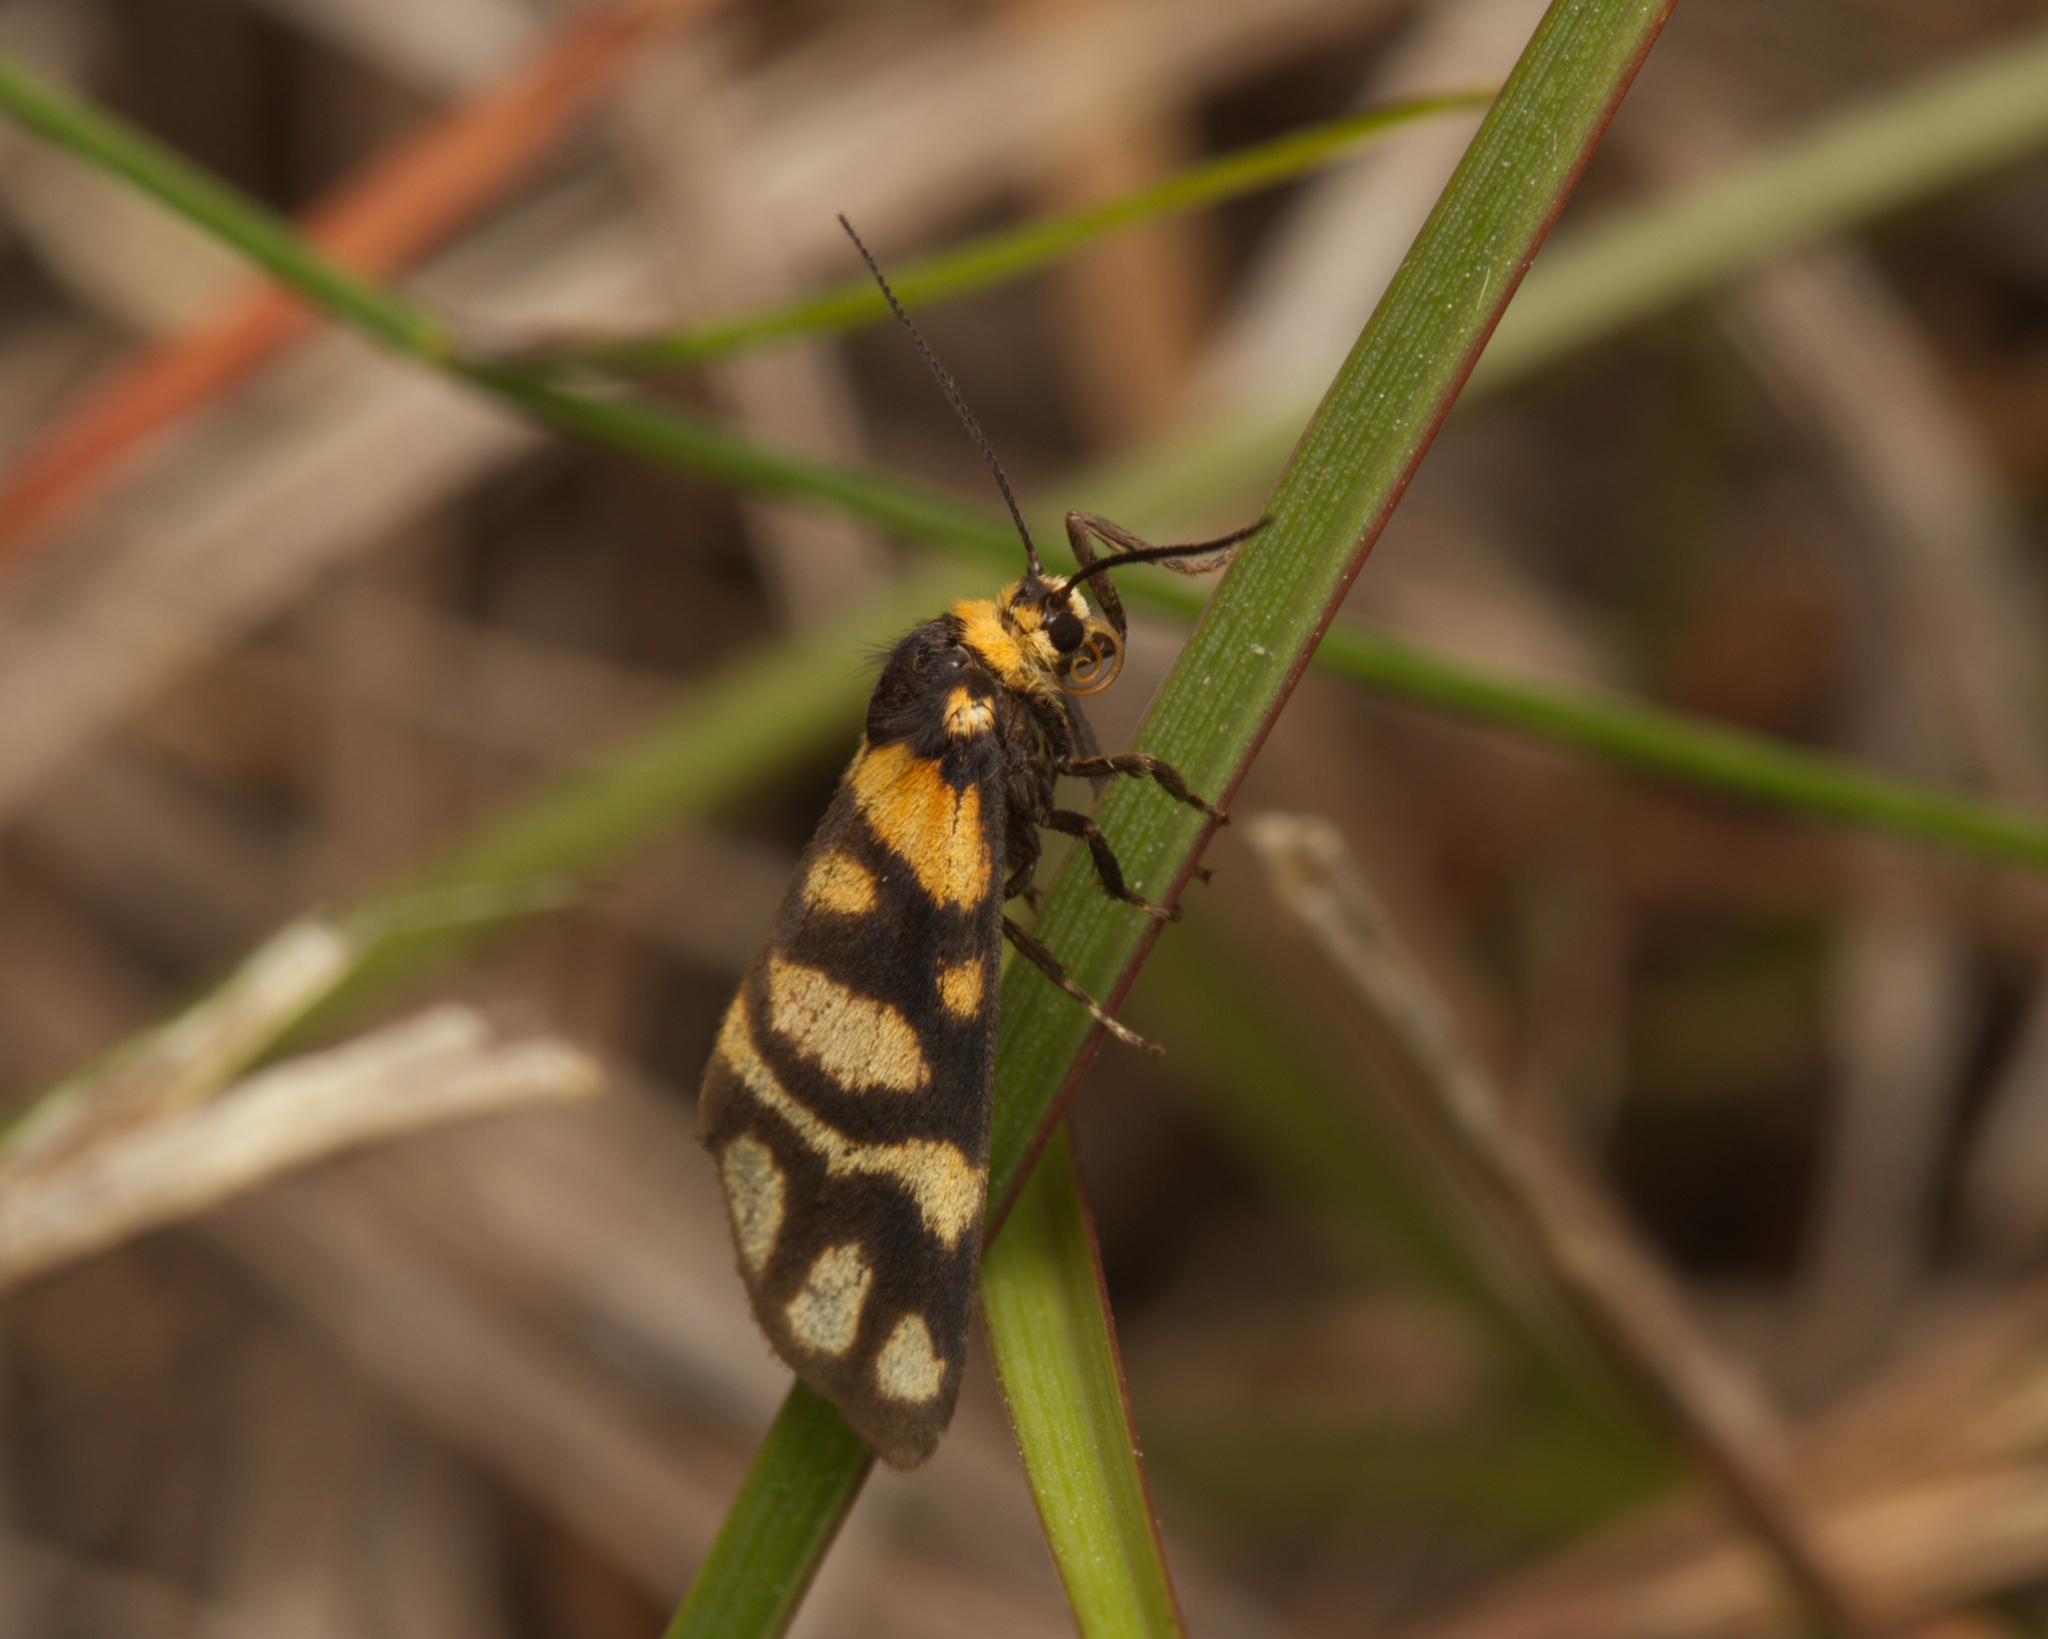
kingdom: Animalia
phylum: Arthropoda
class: Insecta
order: Lepidoptera
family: Erebidae
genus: Asura
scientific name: Asura lydia
